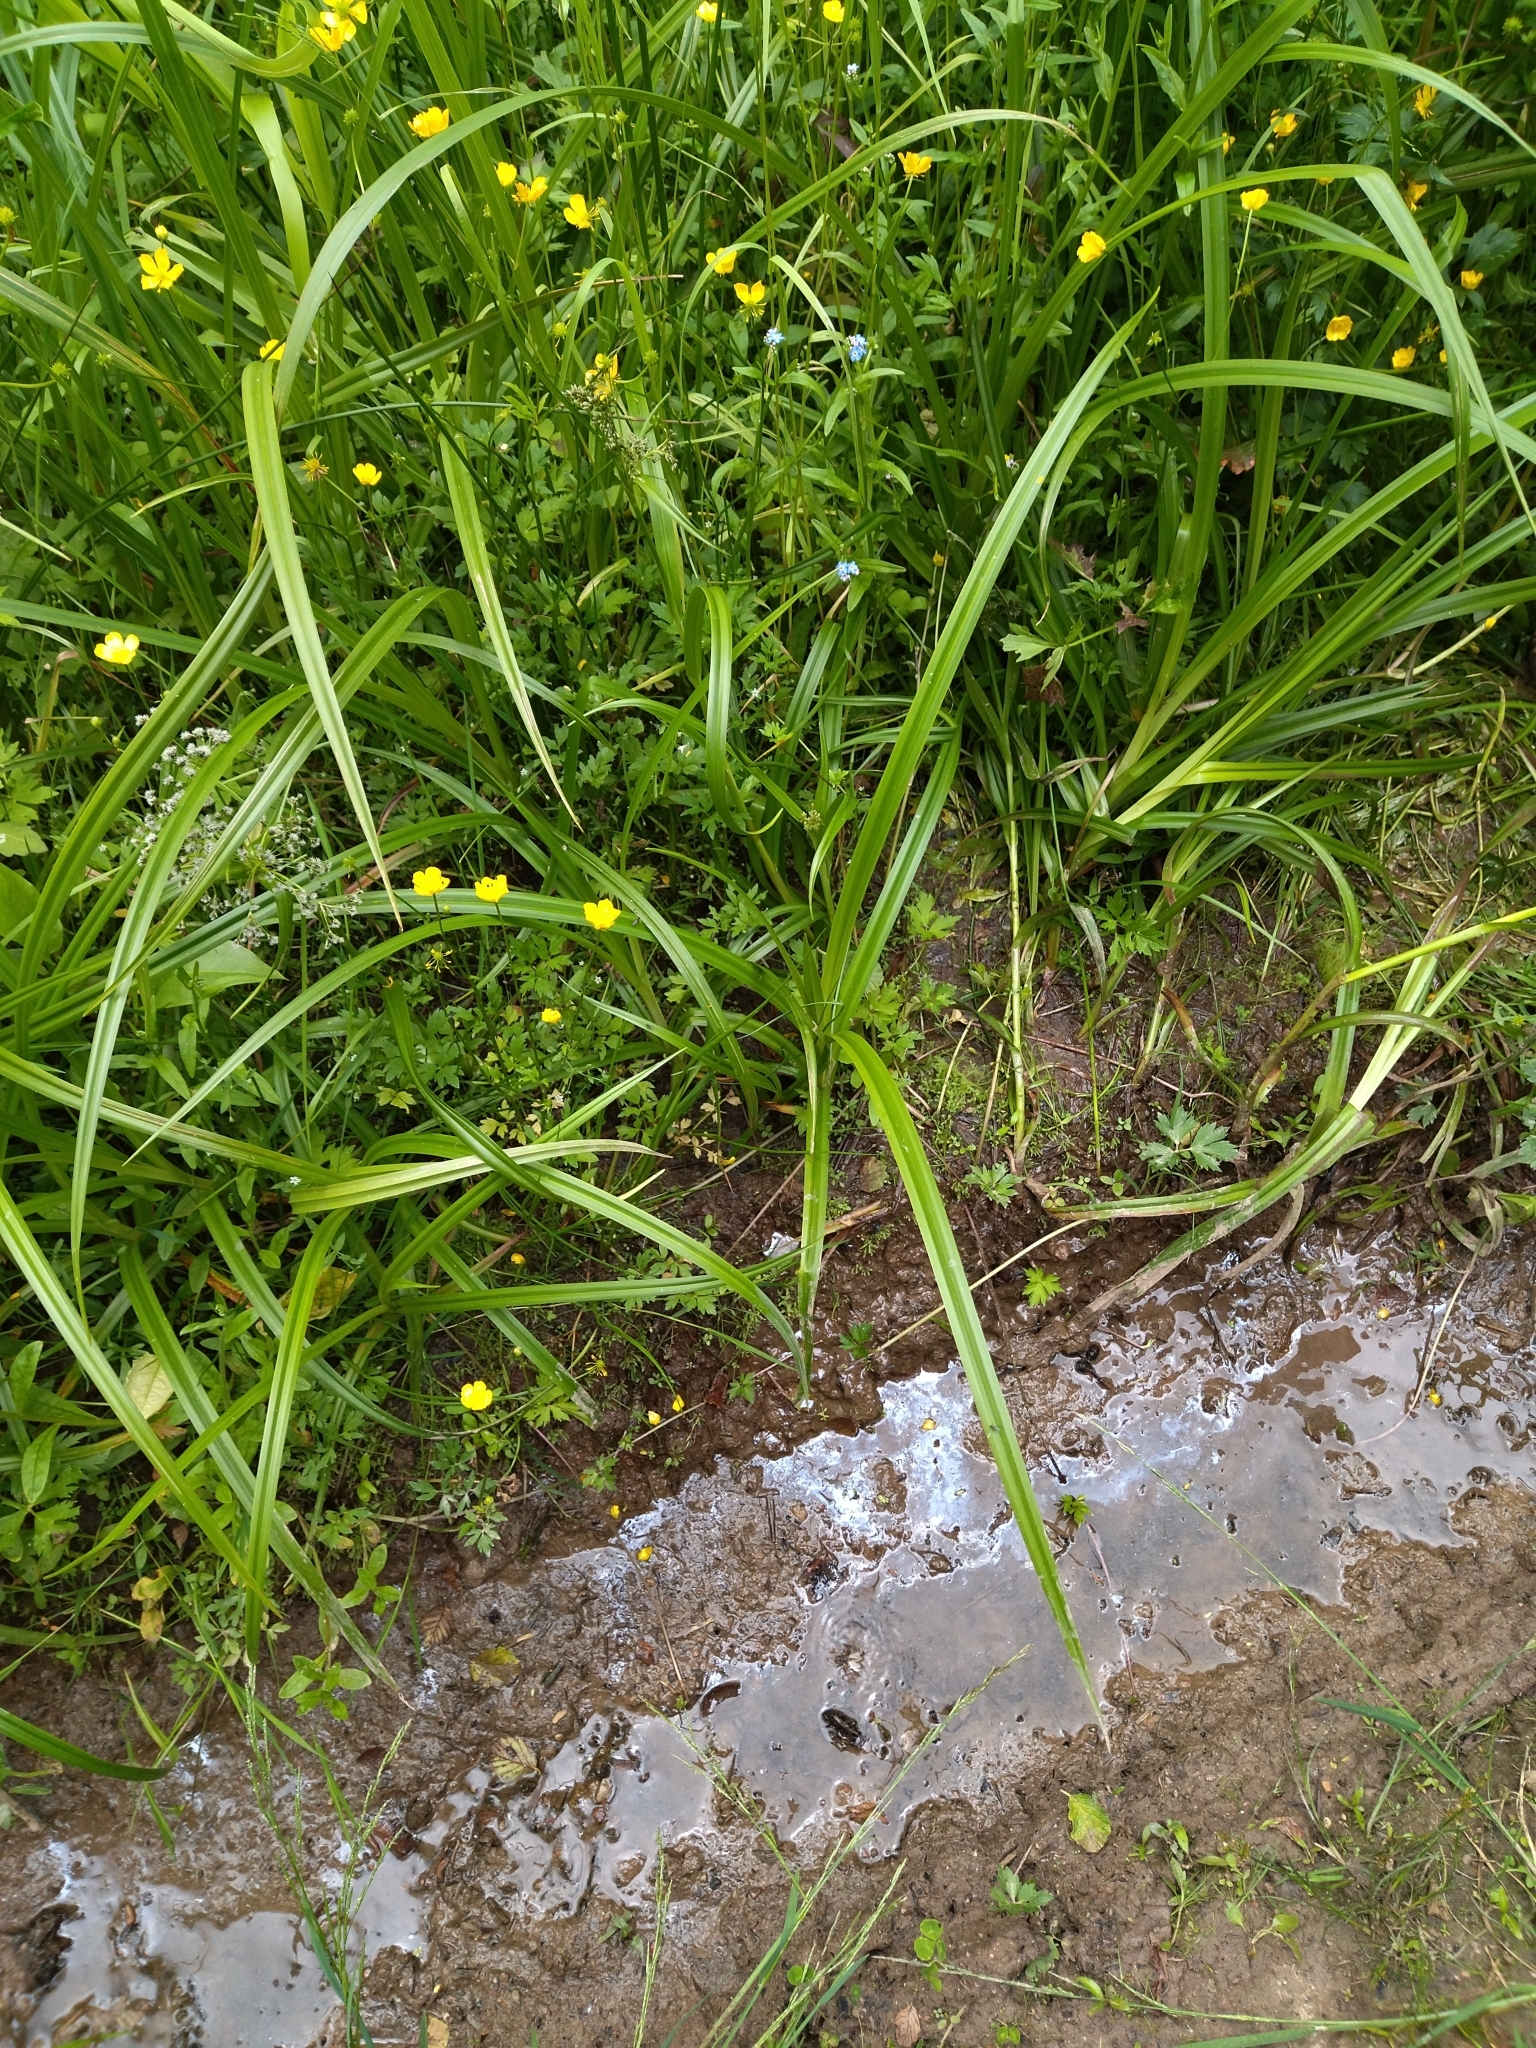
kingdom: Plantae
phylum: Tracheophyta
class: Liliopsida
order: Poales
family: Cyperaceae
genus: Scirpus
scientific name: Scirpus sylvaticus
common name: Wood club-rush
